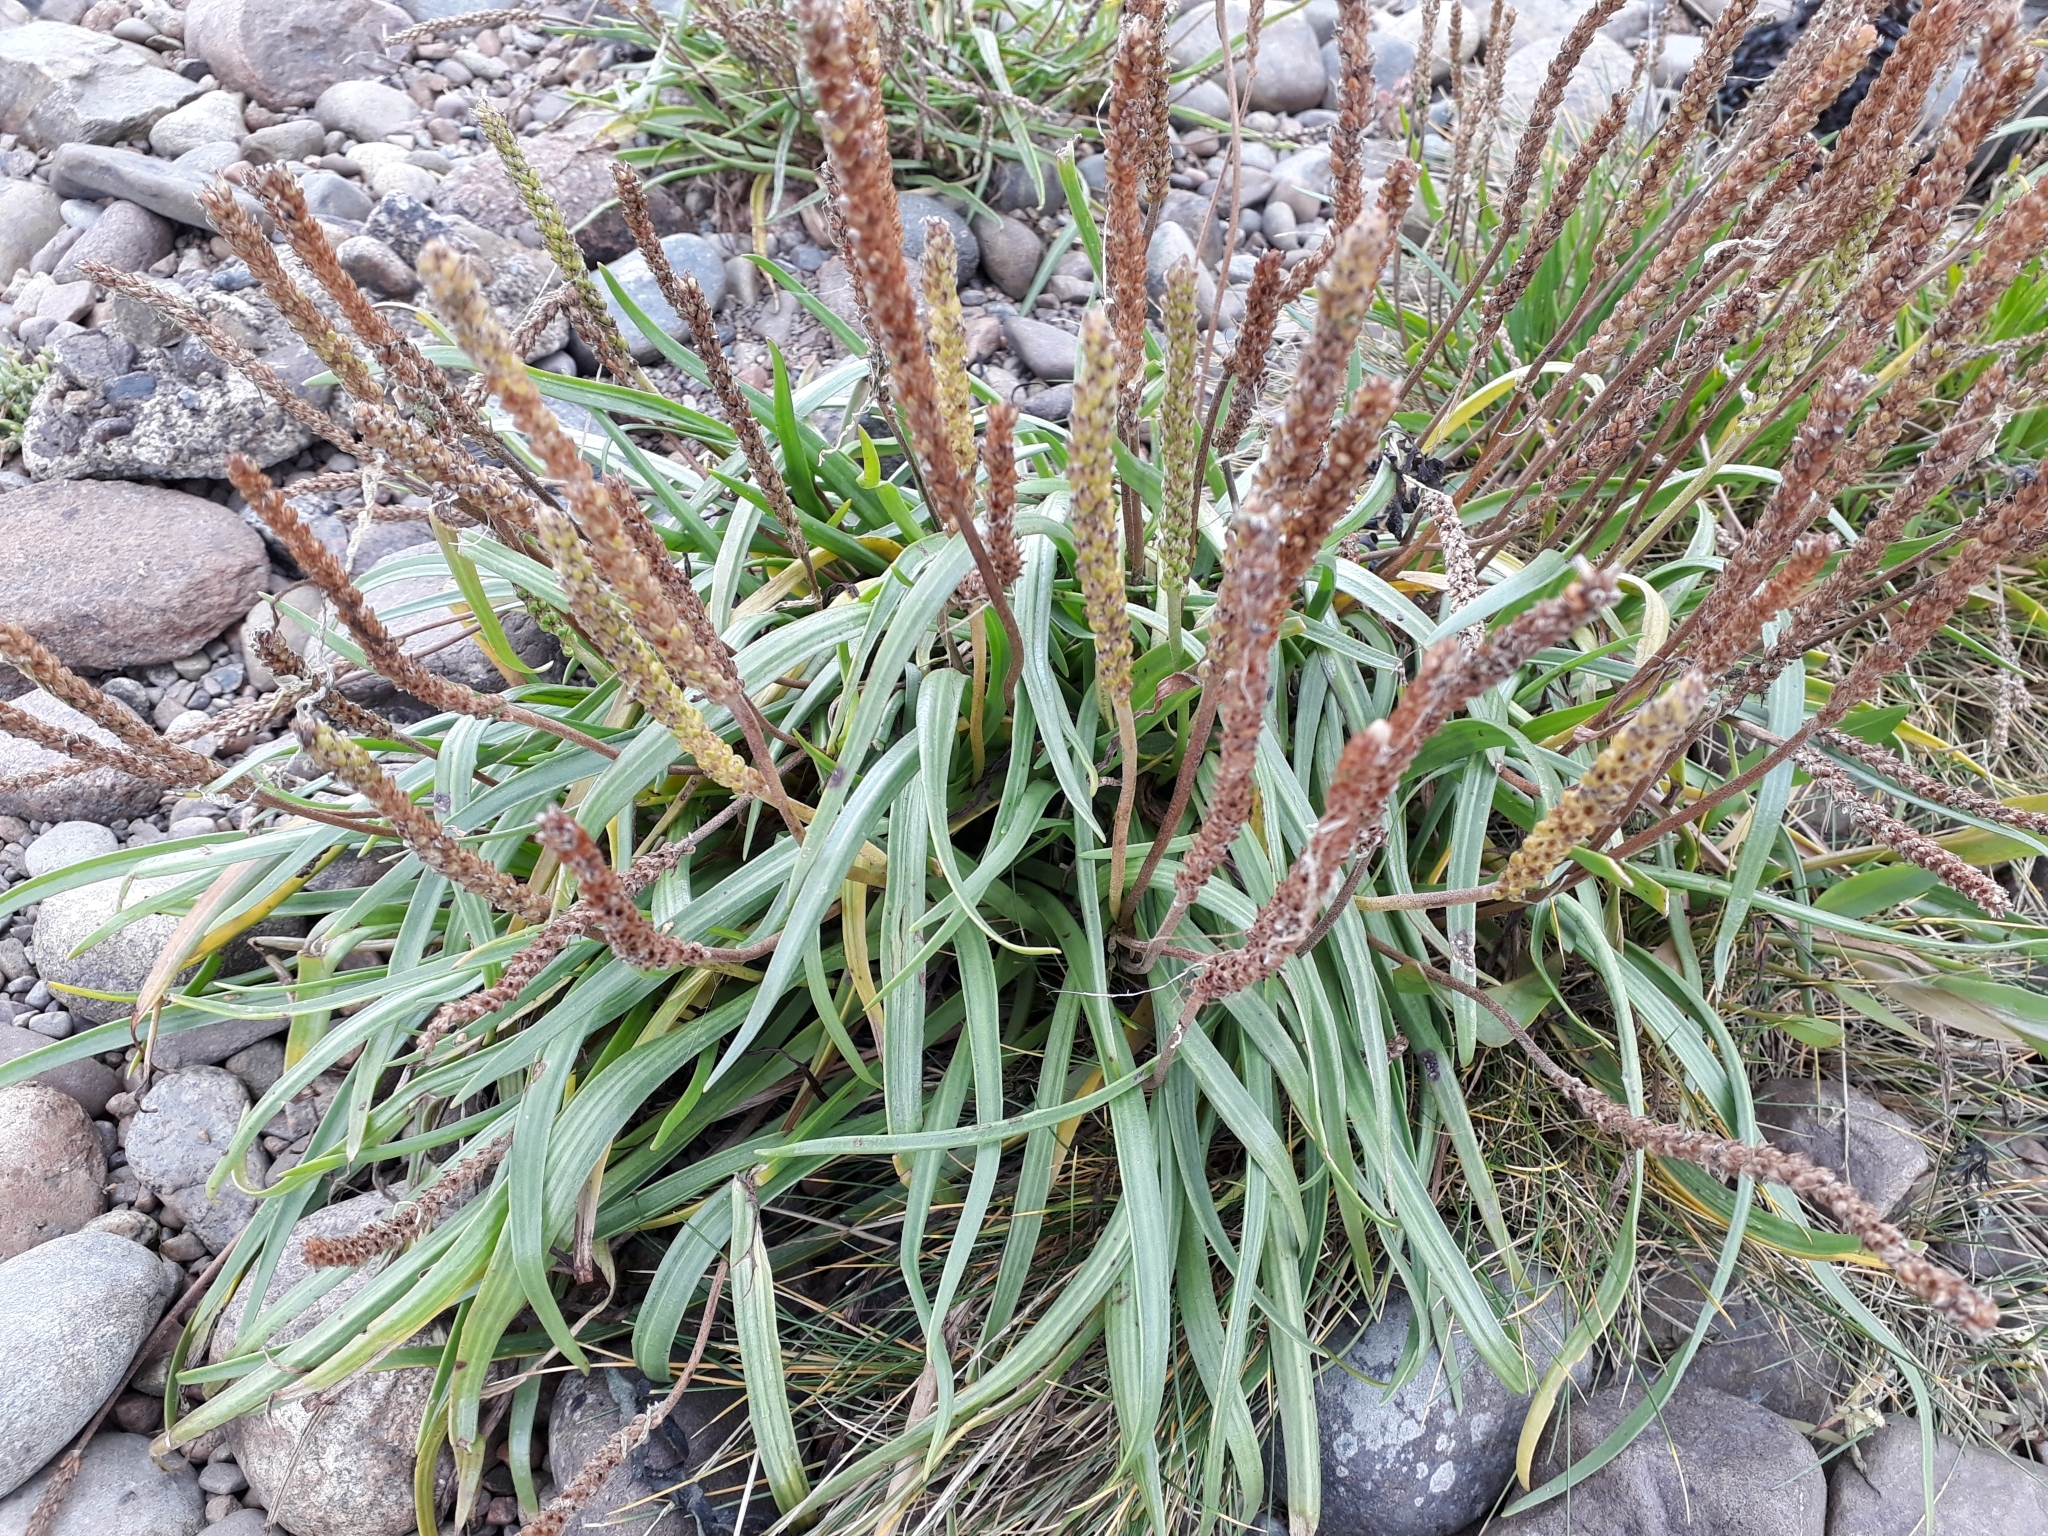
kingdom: Plantae
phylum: Tracheophyta
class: Magnoliopsida
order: Lamiales
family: Plantaginaceae
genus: Plantago
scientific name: Plantago maritima
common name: Sea plantain
